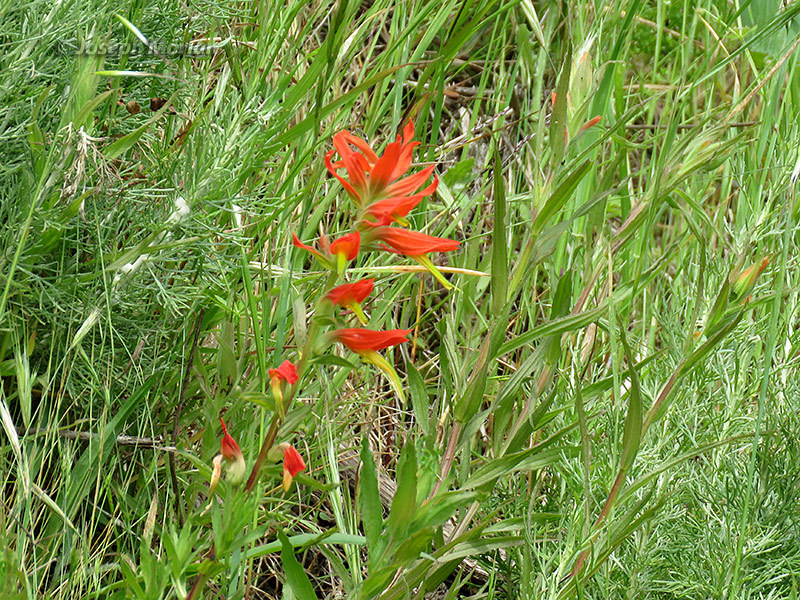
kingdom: Plantae
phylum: Tracheophyta
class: Magnoliopsida
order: Lamiales
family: Orobanchaceae
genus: Castilleja
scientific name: Castilleja subinclusa
